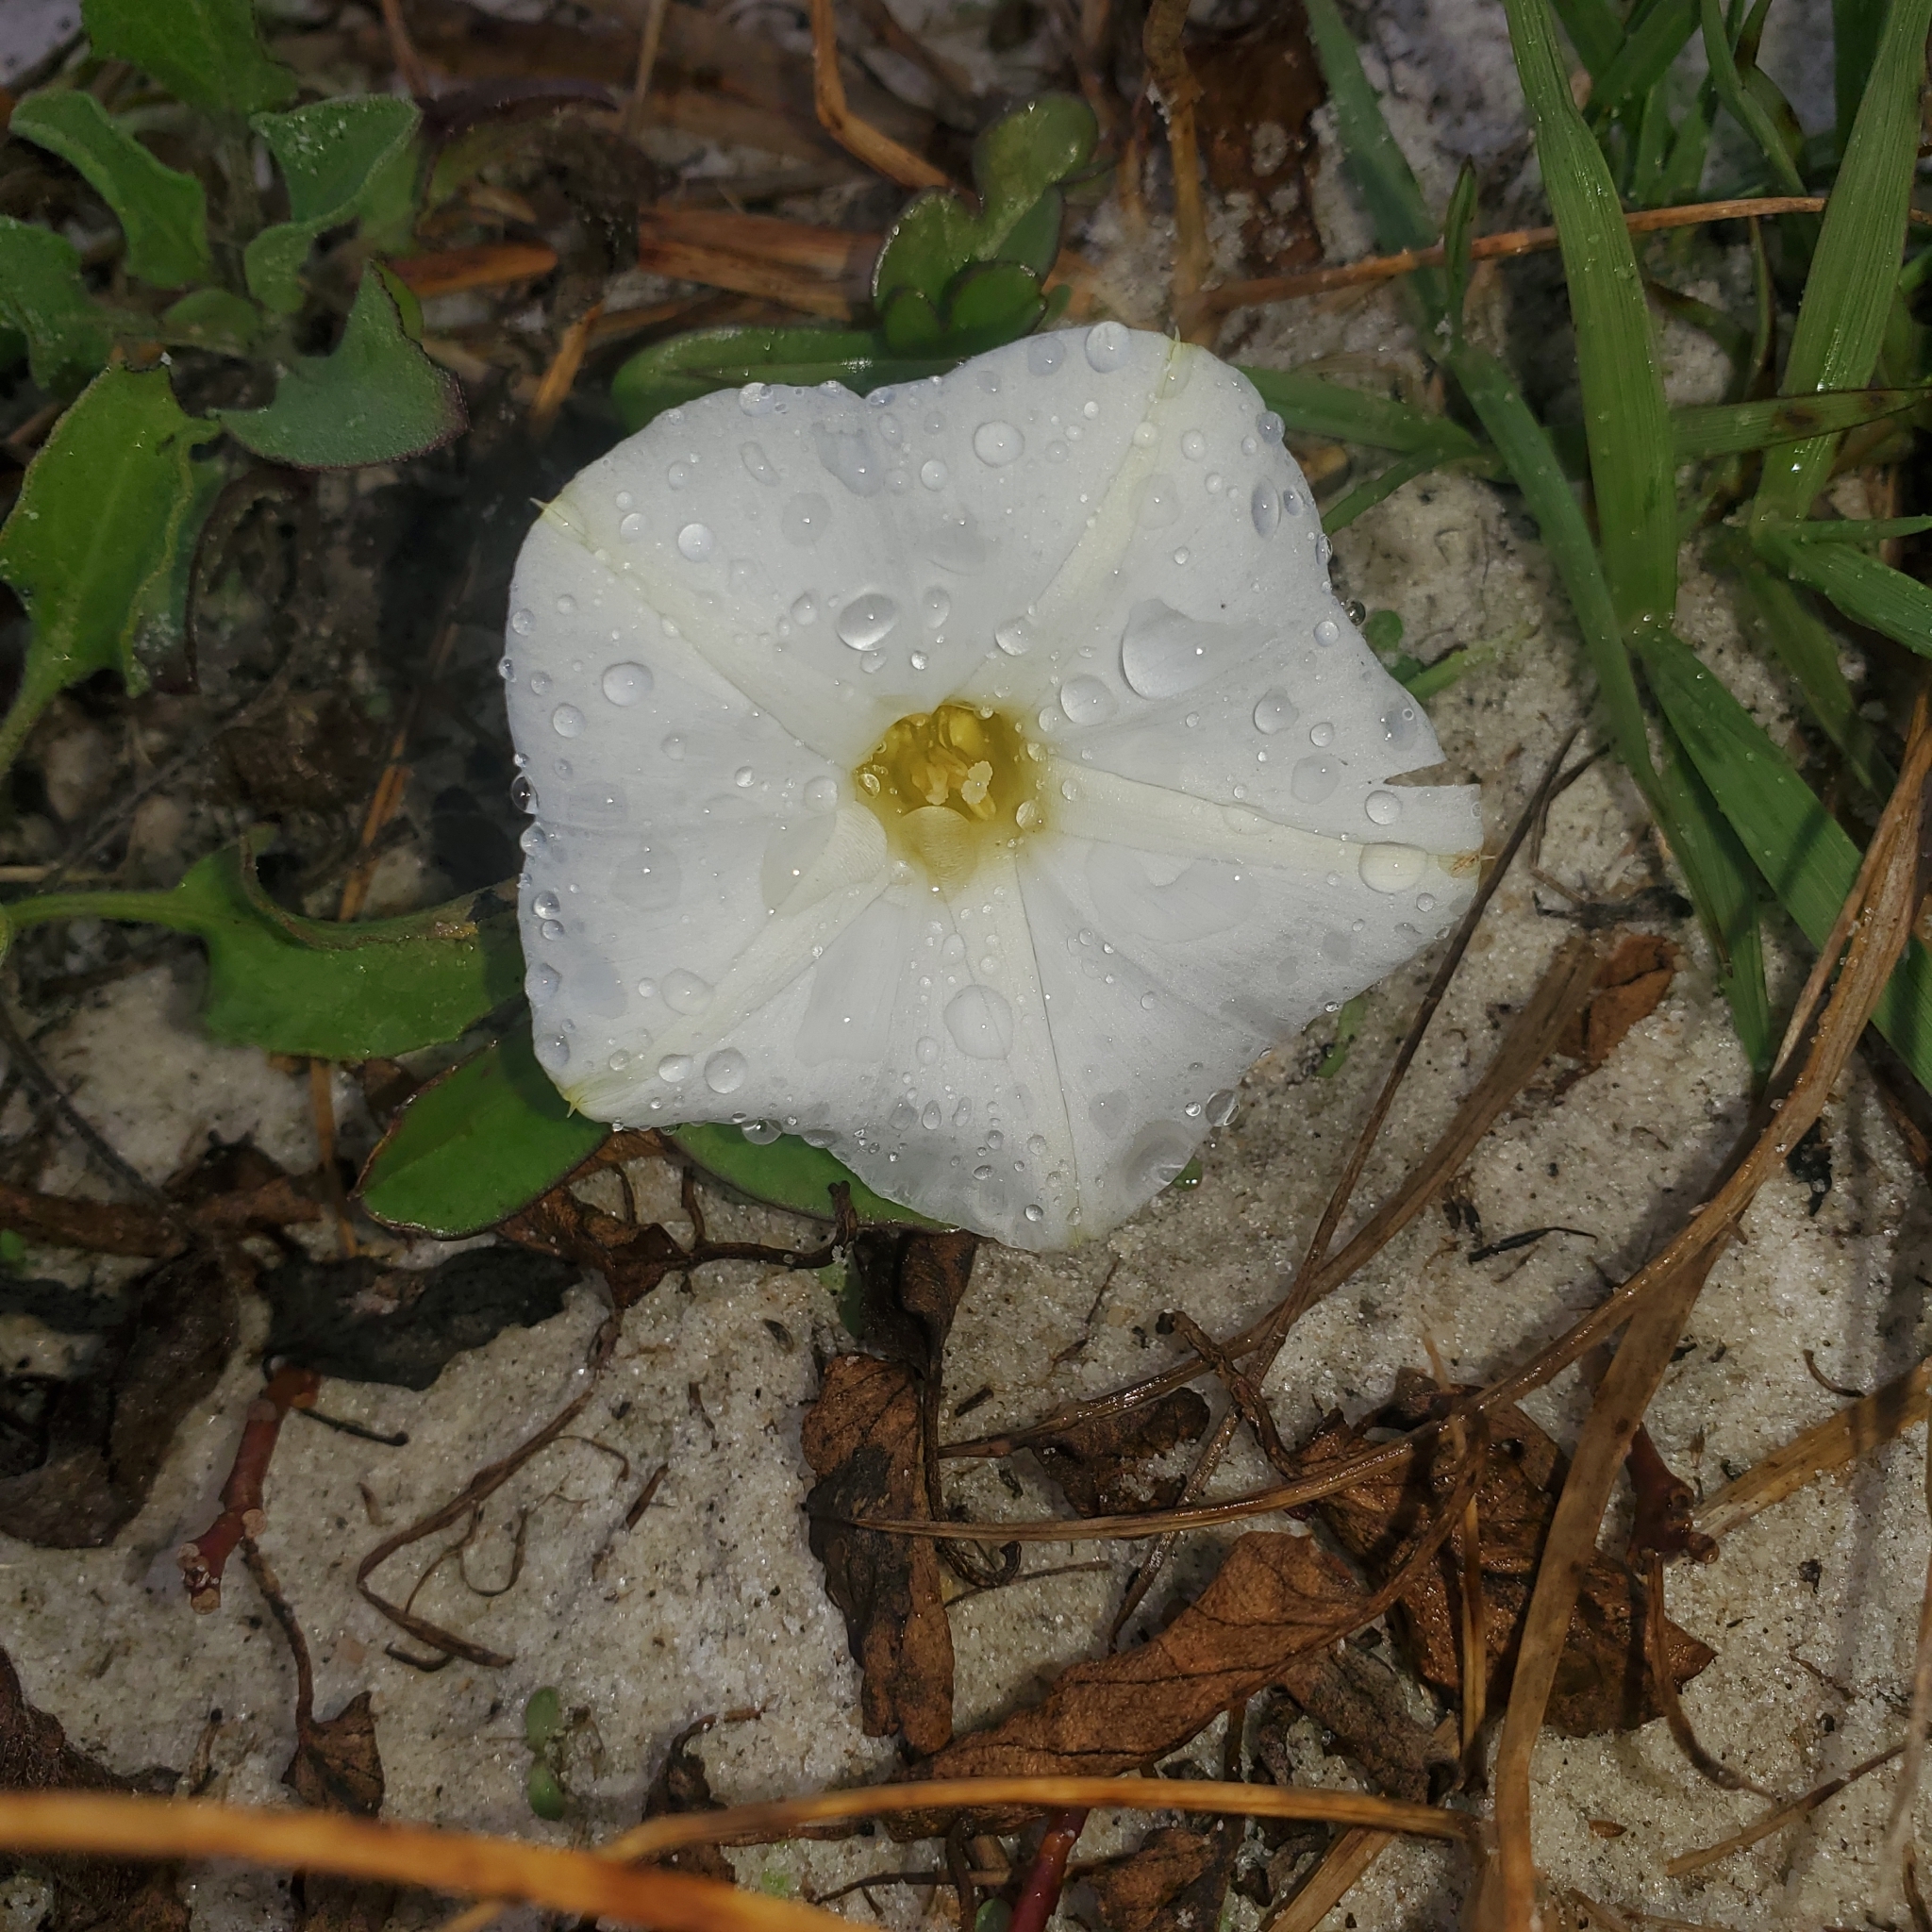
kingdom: Plantae
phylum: Tracheophyta
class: Magnoliopsida
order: Solanales
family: Convolvulaceae
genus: Ipomoea
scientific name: Ipomoea imperati
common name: Fiddle-leaf morning-glory
